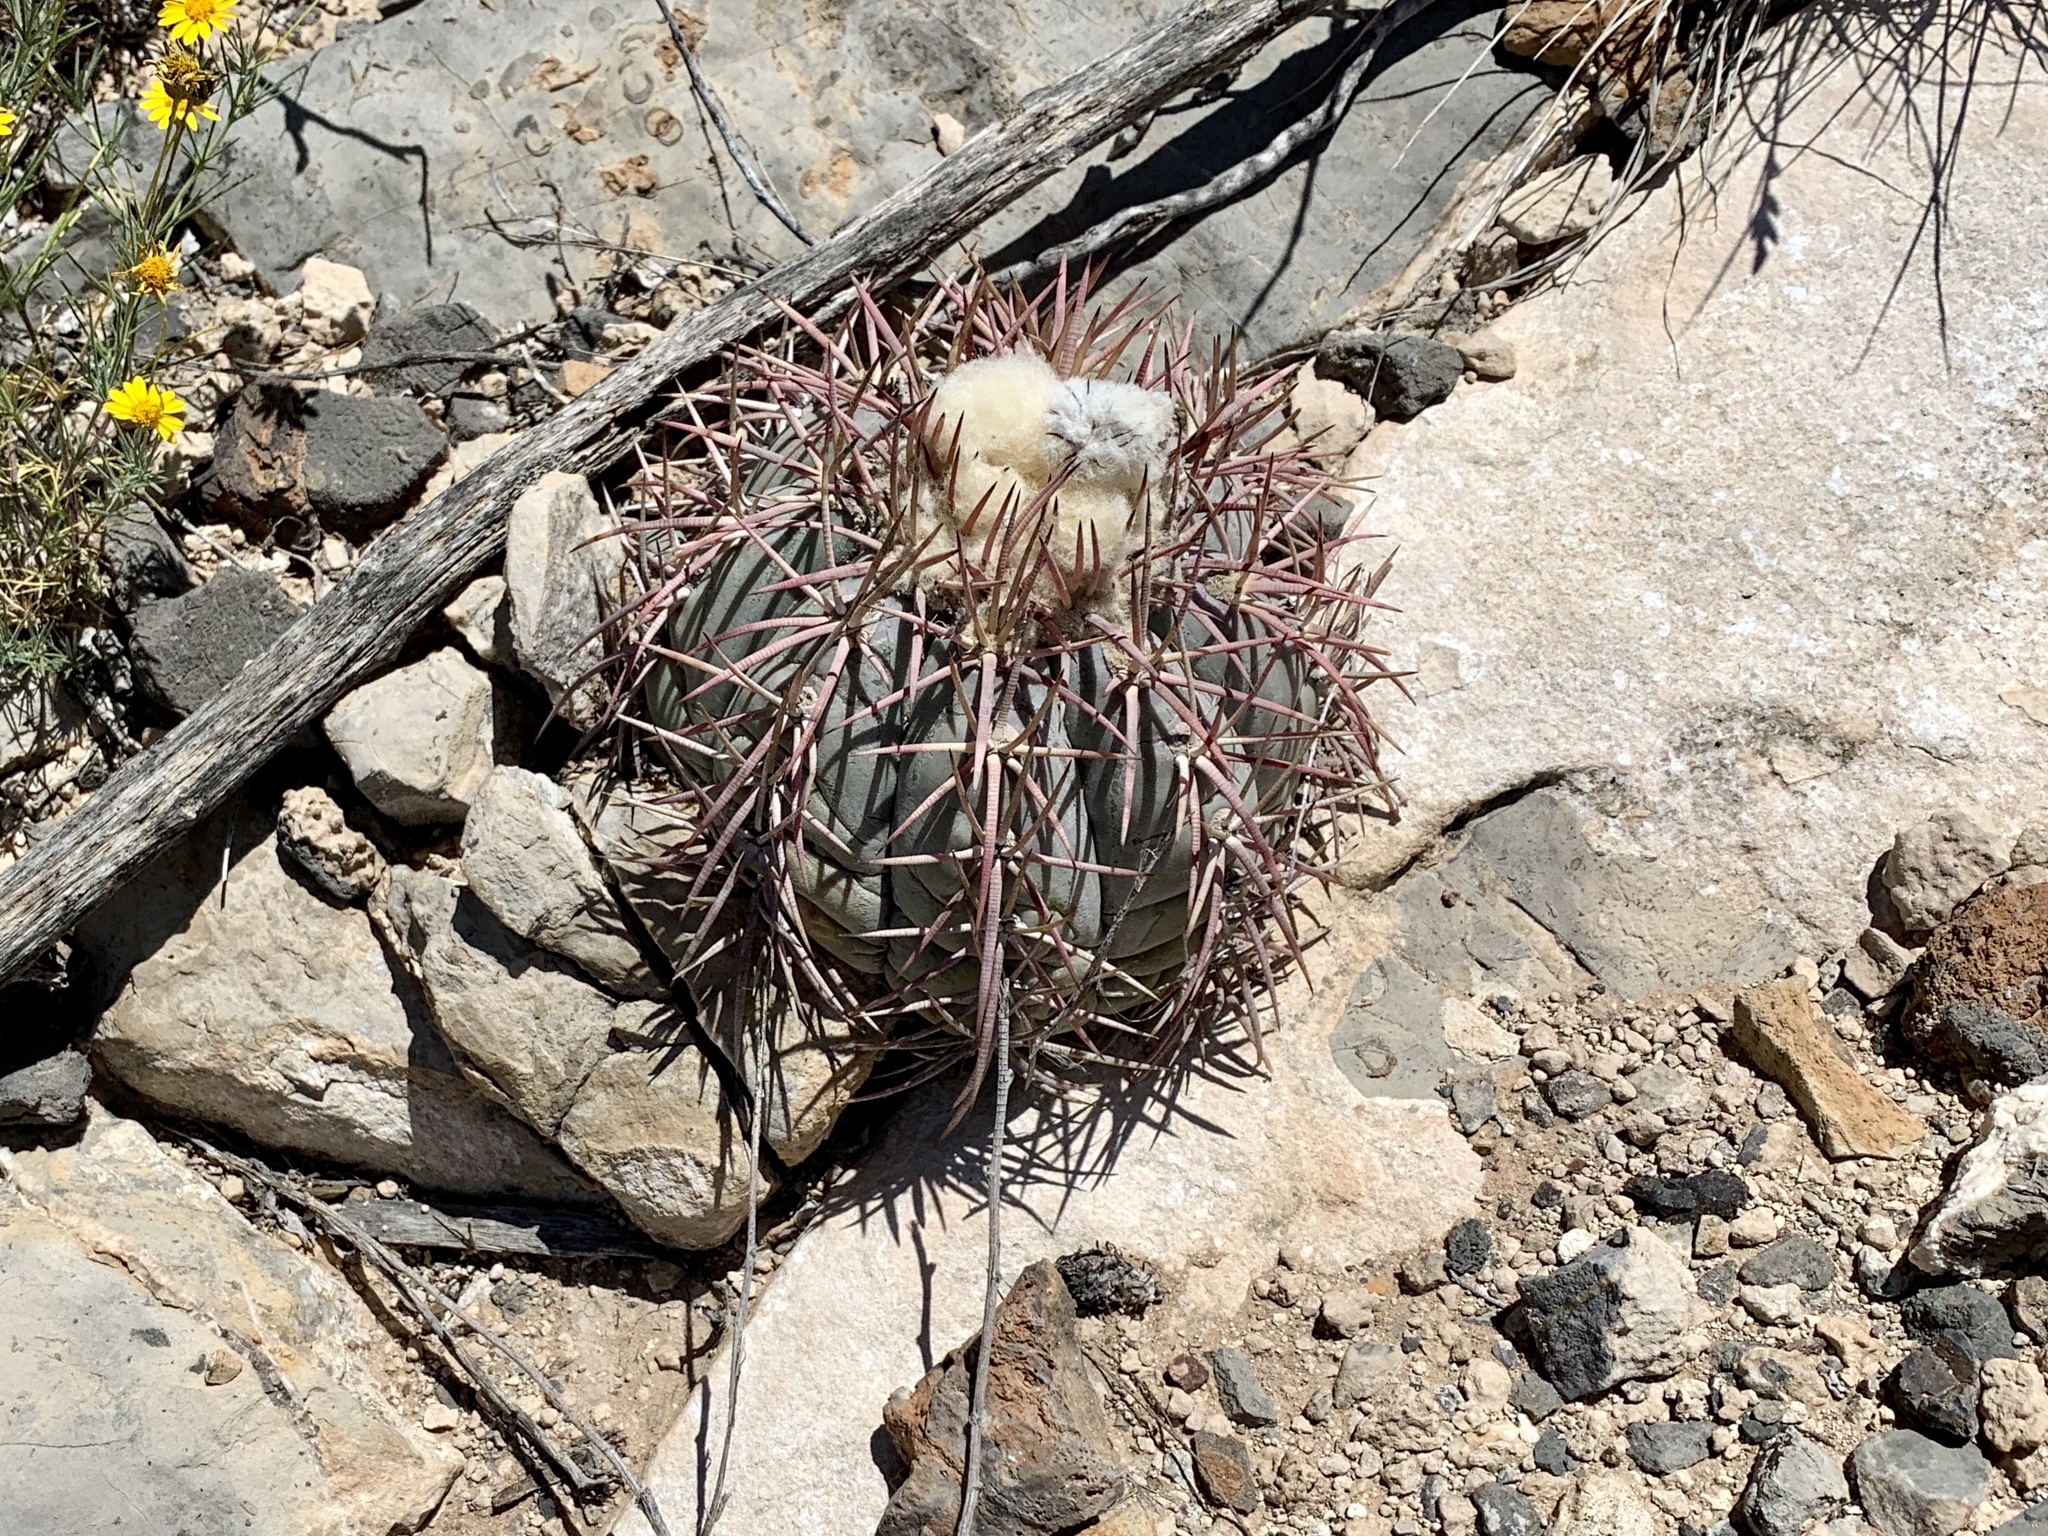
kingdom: Plantae
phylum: Tracheophyta
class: Magnoliopsida
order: Caryophyllales
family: Cactaceae
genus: Echinocactus
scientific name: Echinocactus horizonthalonius
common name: Devilshead
